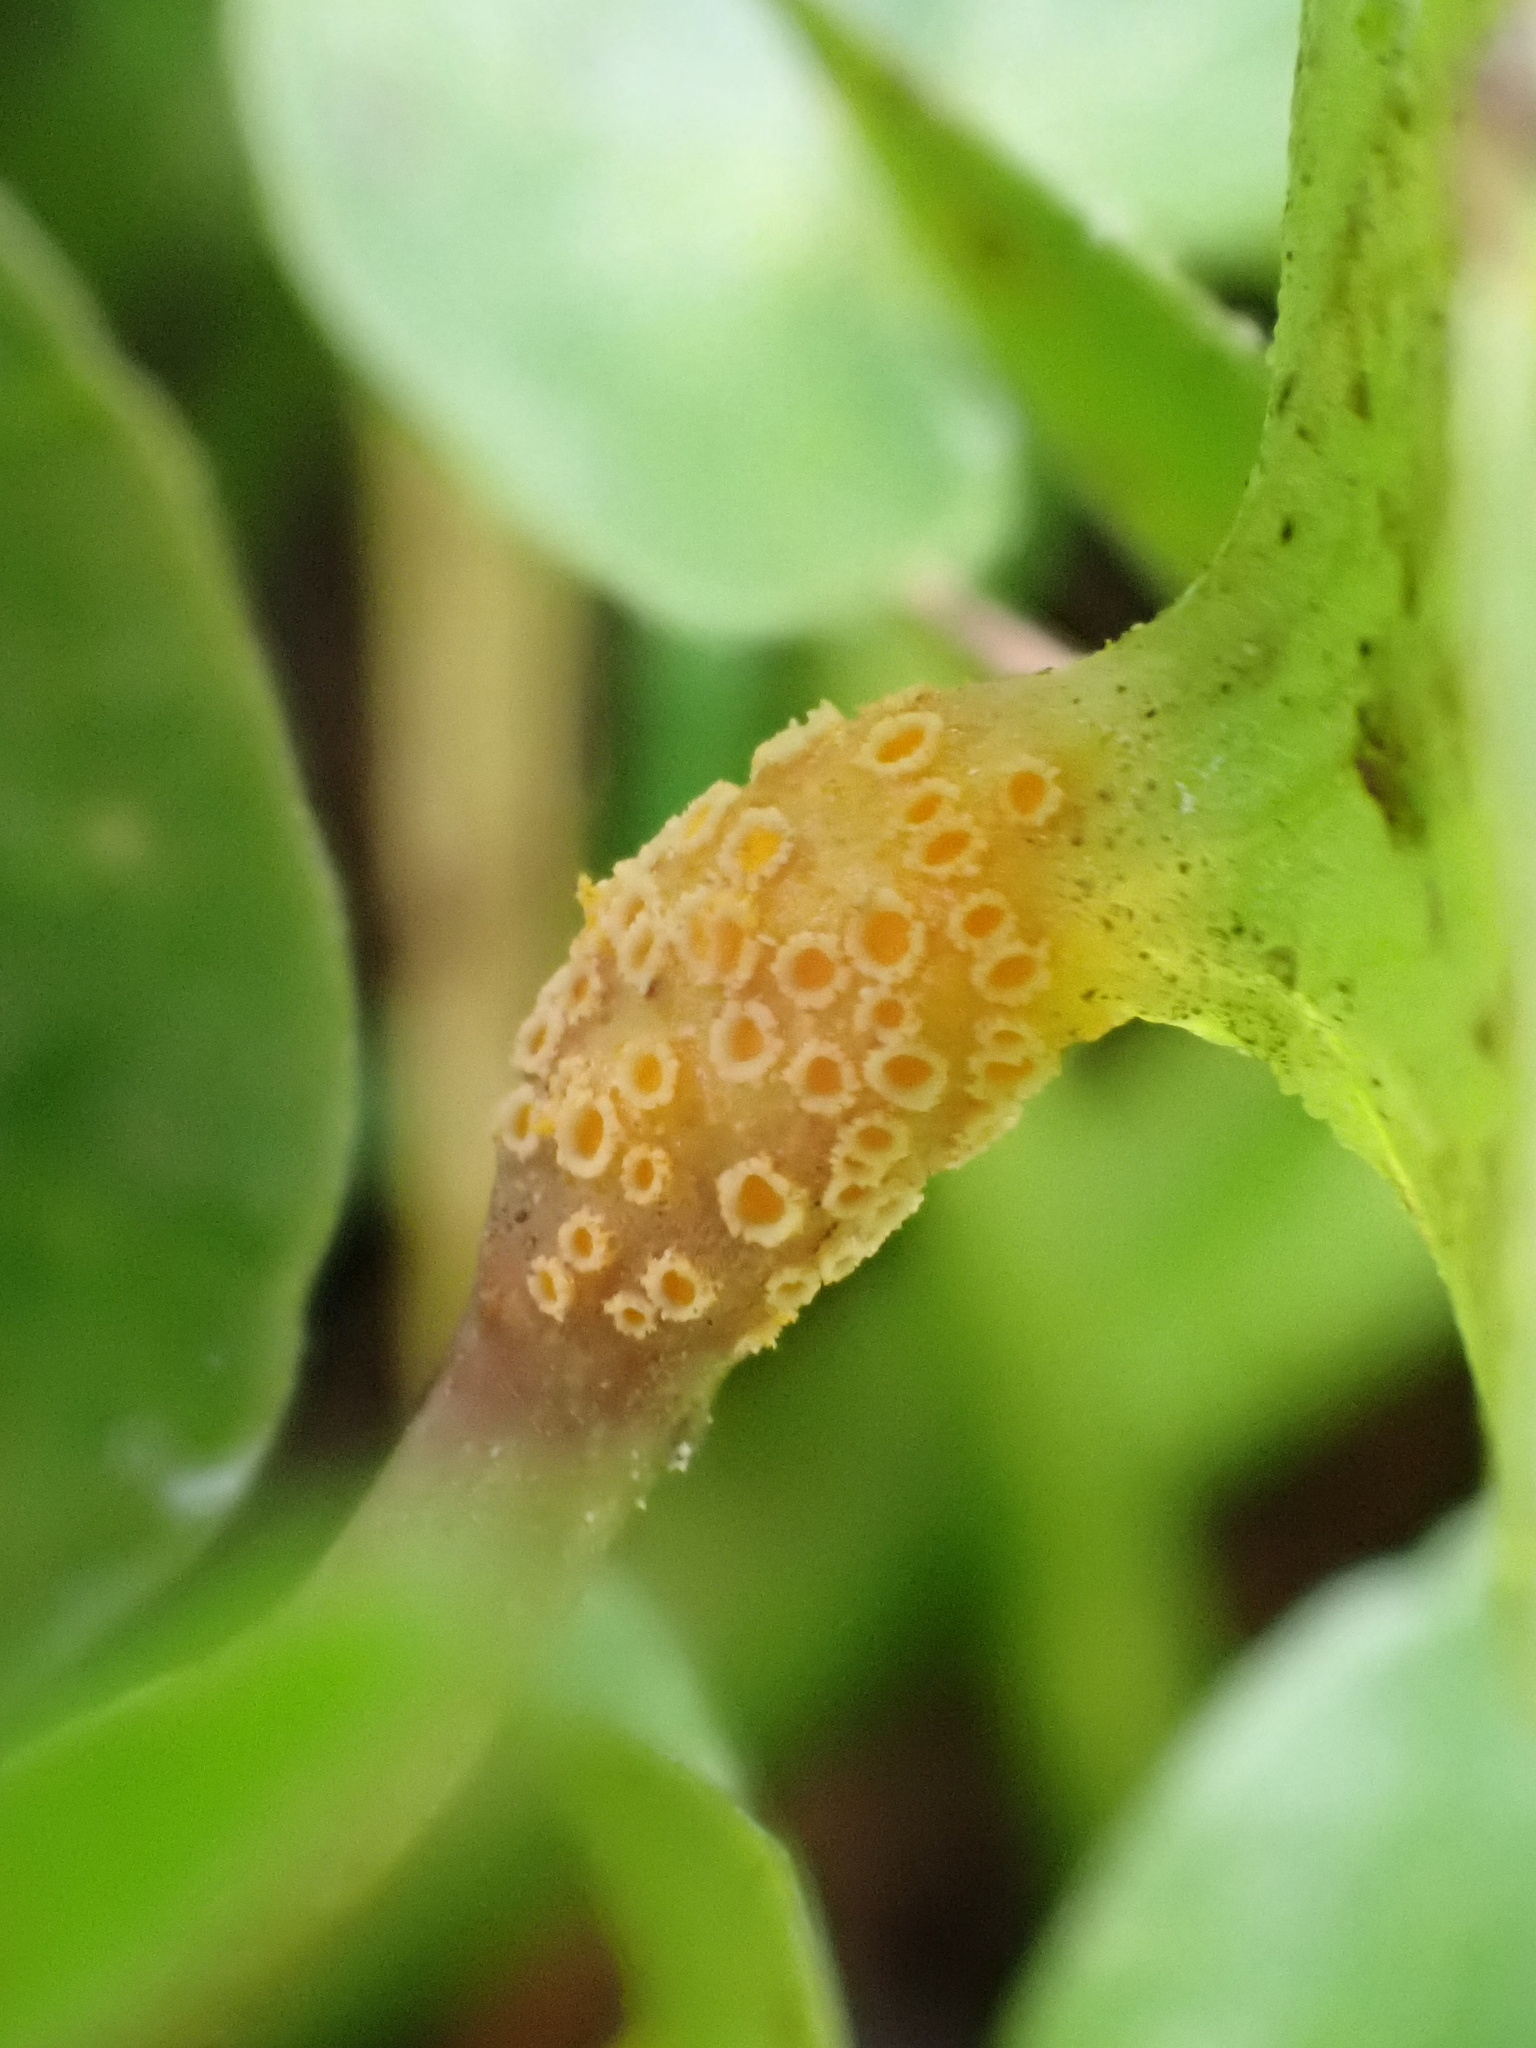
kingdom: Fungi
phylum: Basidiomycota
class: Pucciniomycetes
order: Pucciniales
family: Pucciniaceae
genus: Uromyces
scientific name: Uromyces
